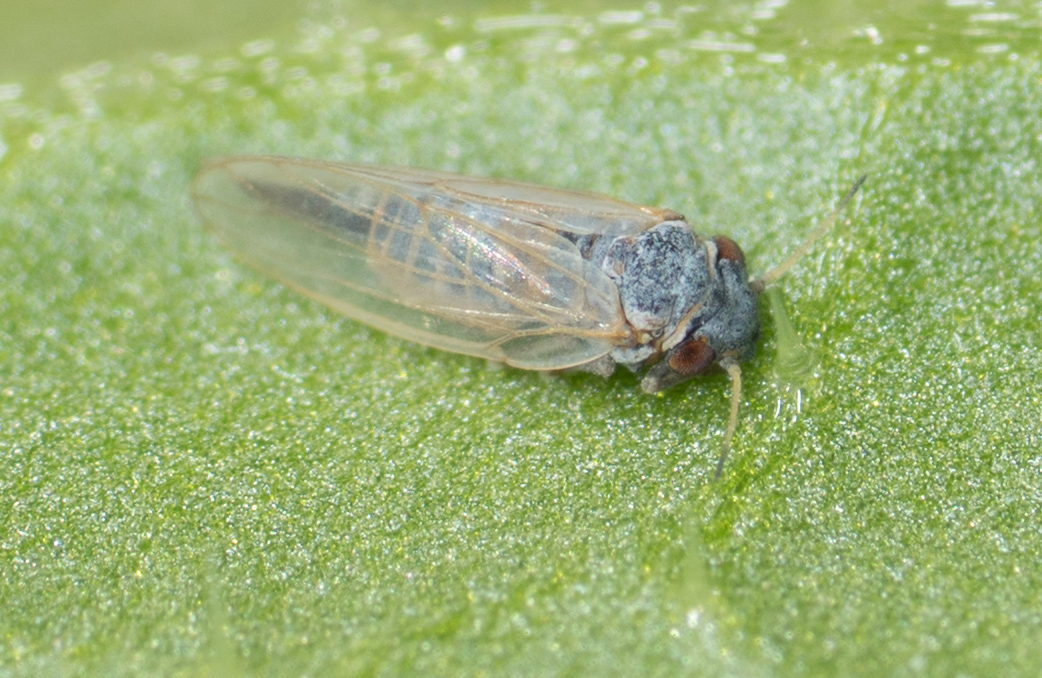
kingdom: Animalia
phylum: Arthropoda
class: Insecta
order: Hemiptera
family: Aphalaridae
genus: Ctenarytaina
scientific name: Ctenarytaina eucalypti
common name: Blue gum psyllid
